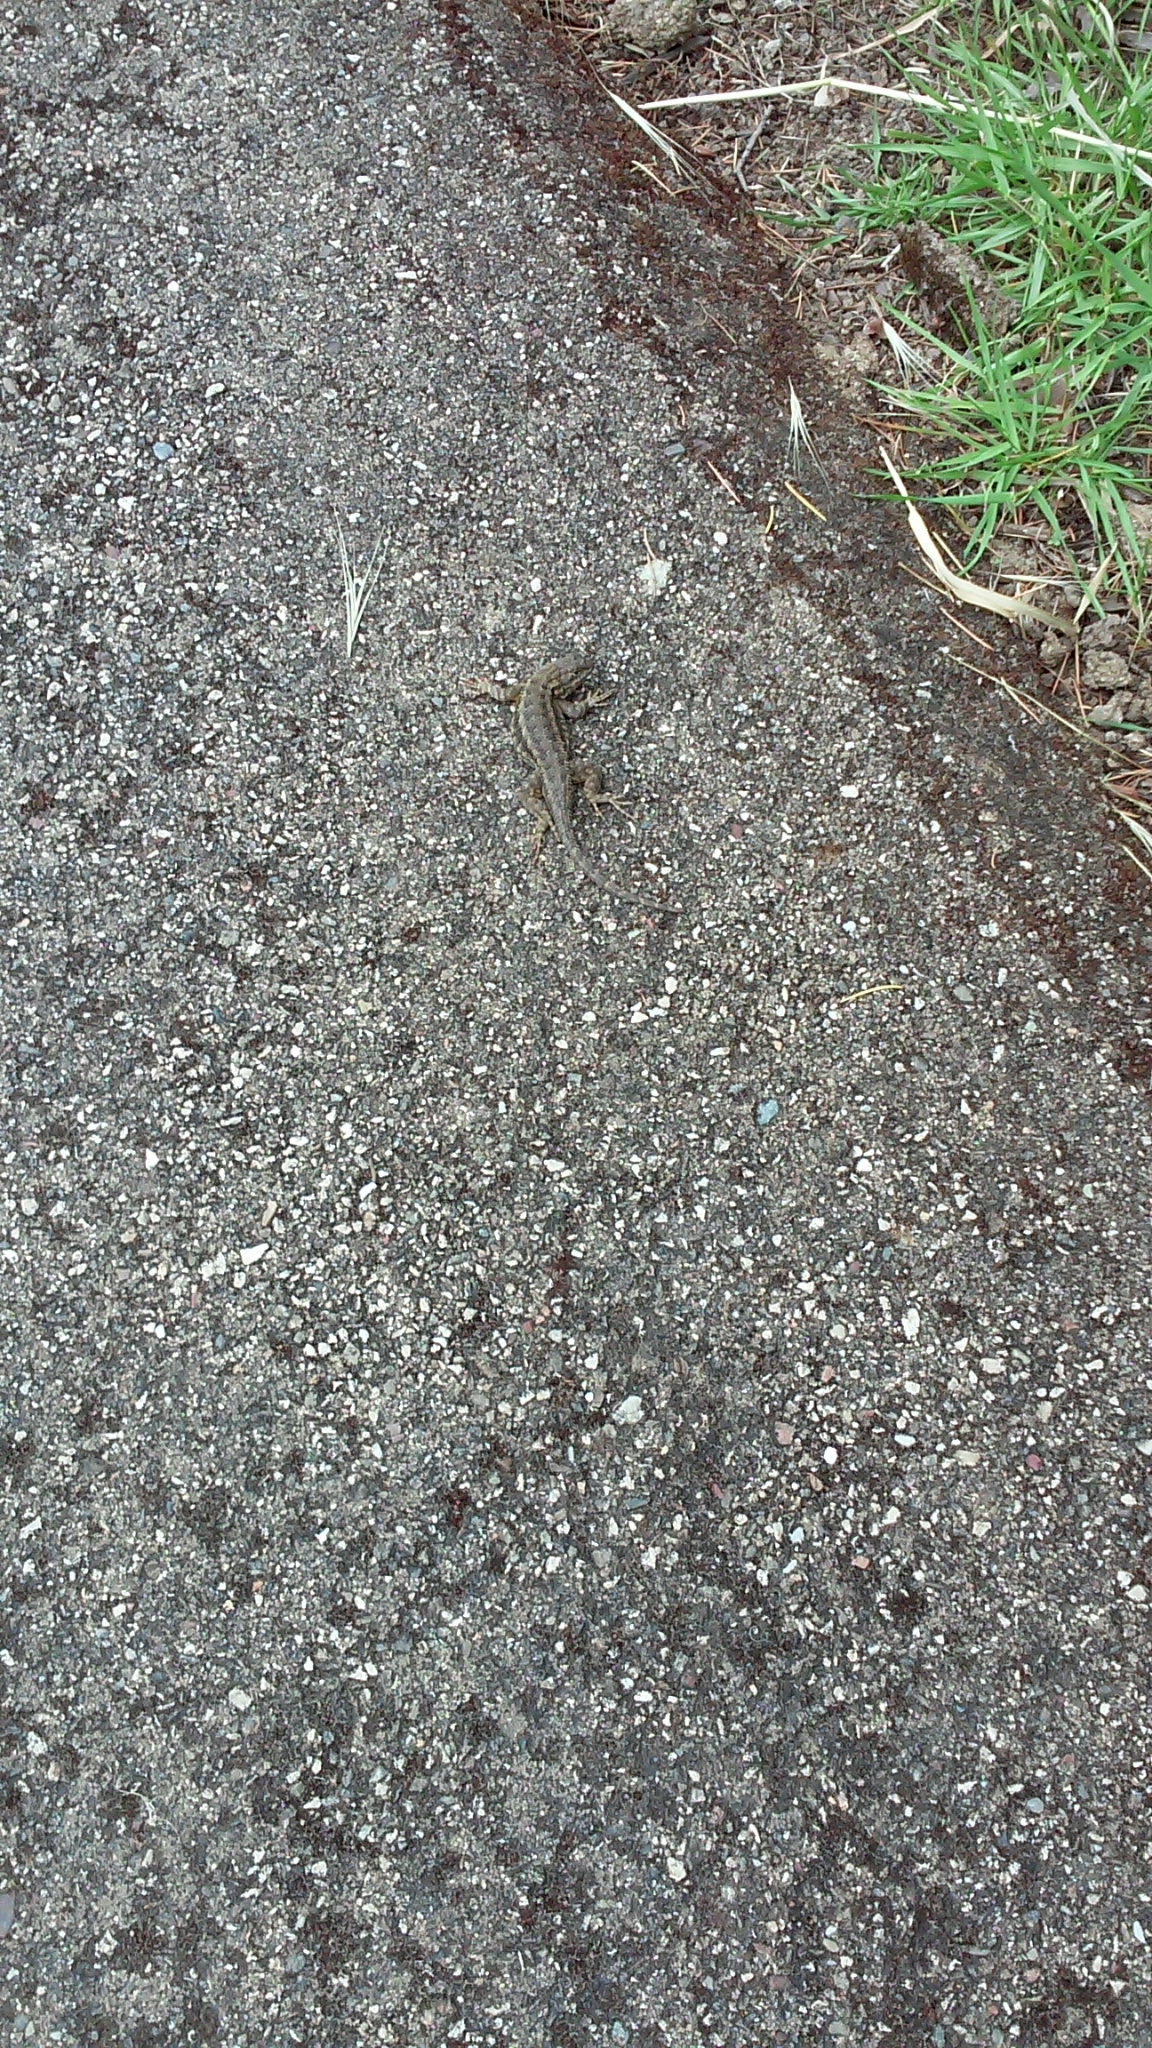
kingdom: Animalia
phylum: Chordata
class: Squamata
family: Phrynosomatidae
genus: Sceloporus
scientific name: Sceloporus occidentalis
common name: Western fence lizard
